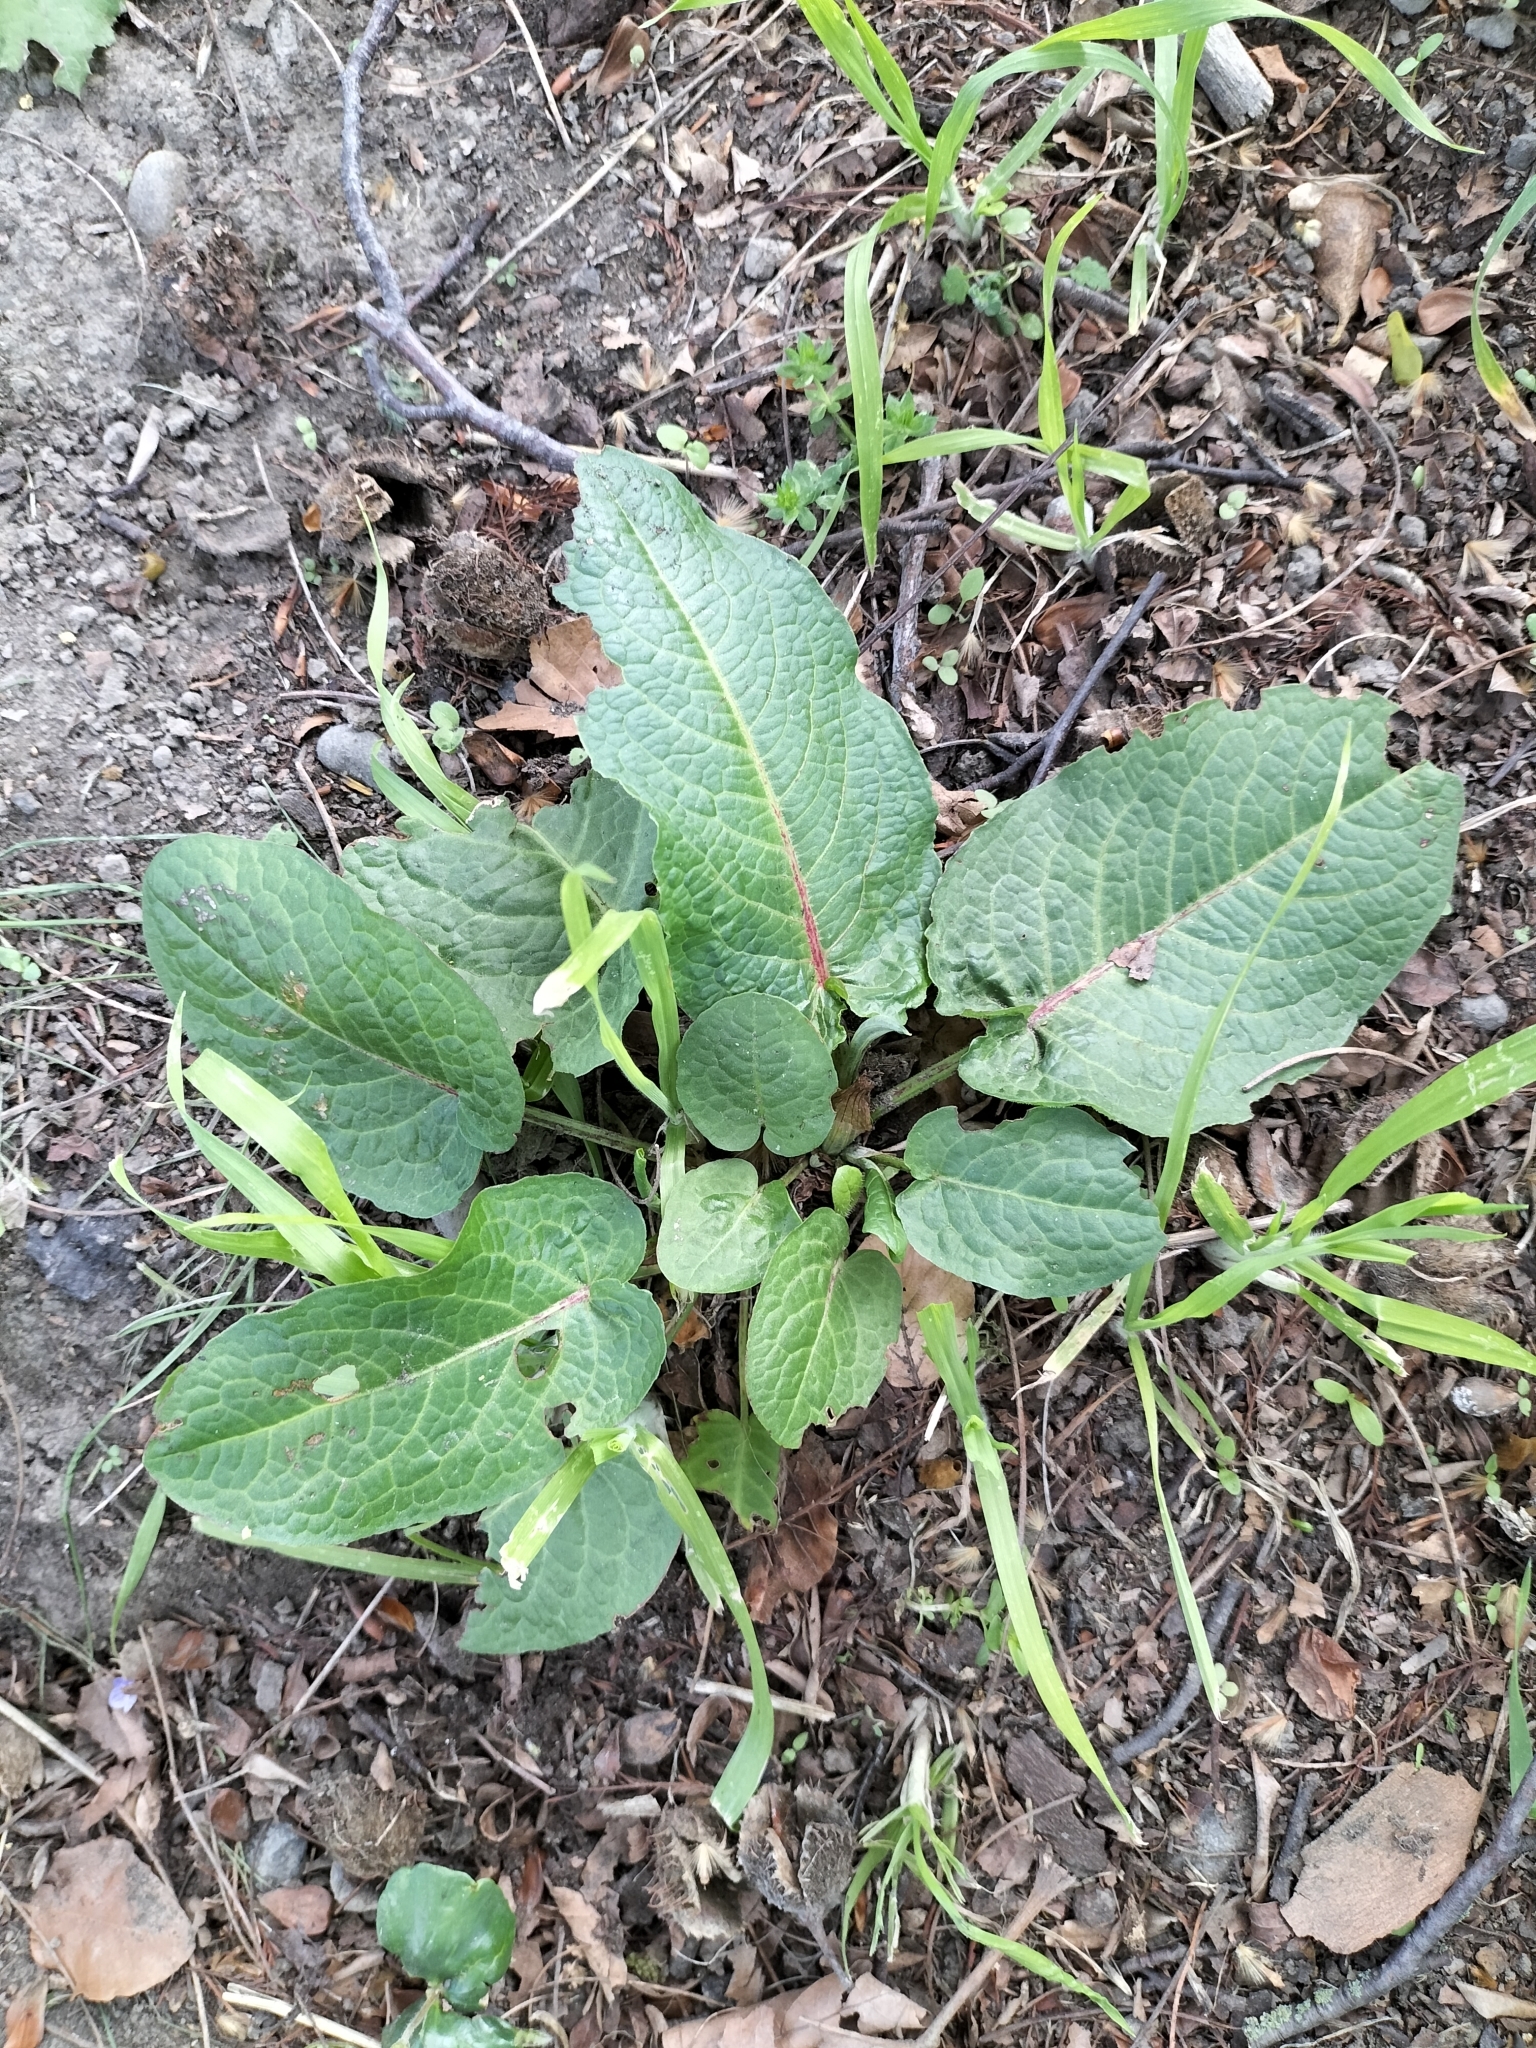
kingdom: Plantae
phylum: Tracheophyta
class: Magnoliopsida
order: Caryophyllales
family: Polygonaceae
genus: Rumex
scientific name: Rumex obtusifolius
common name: Bitter dock
